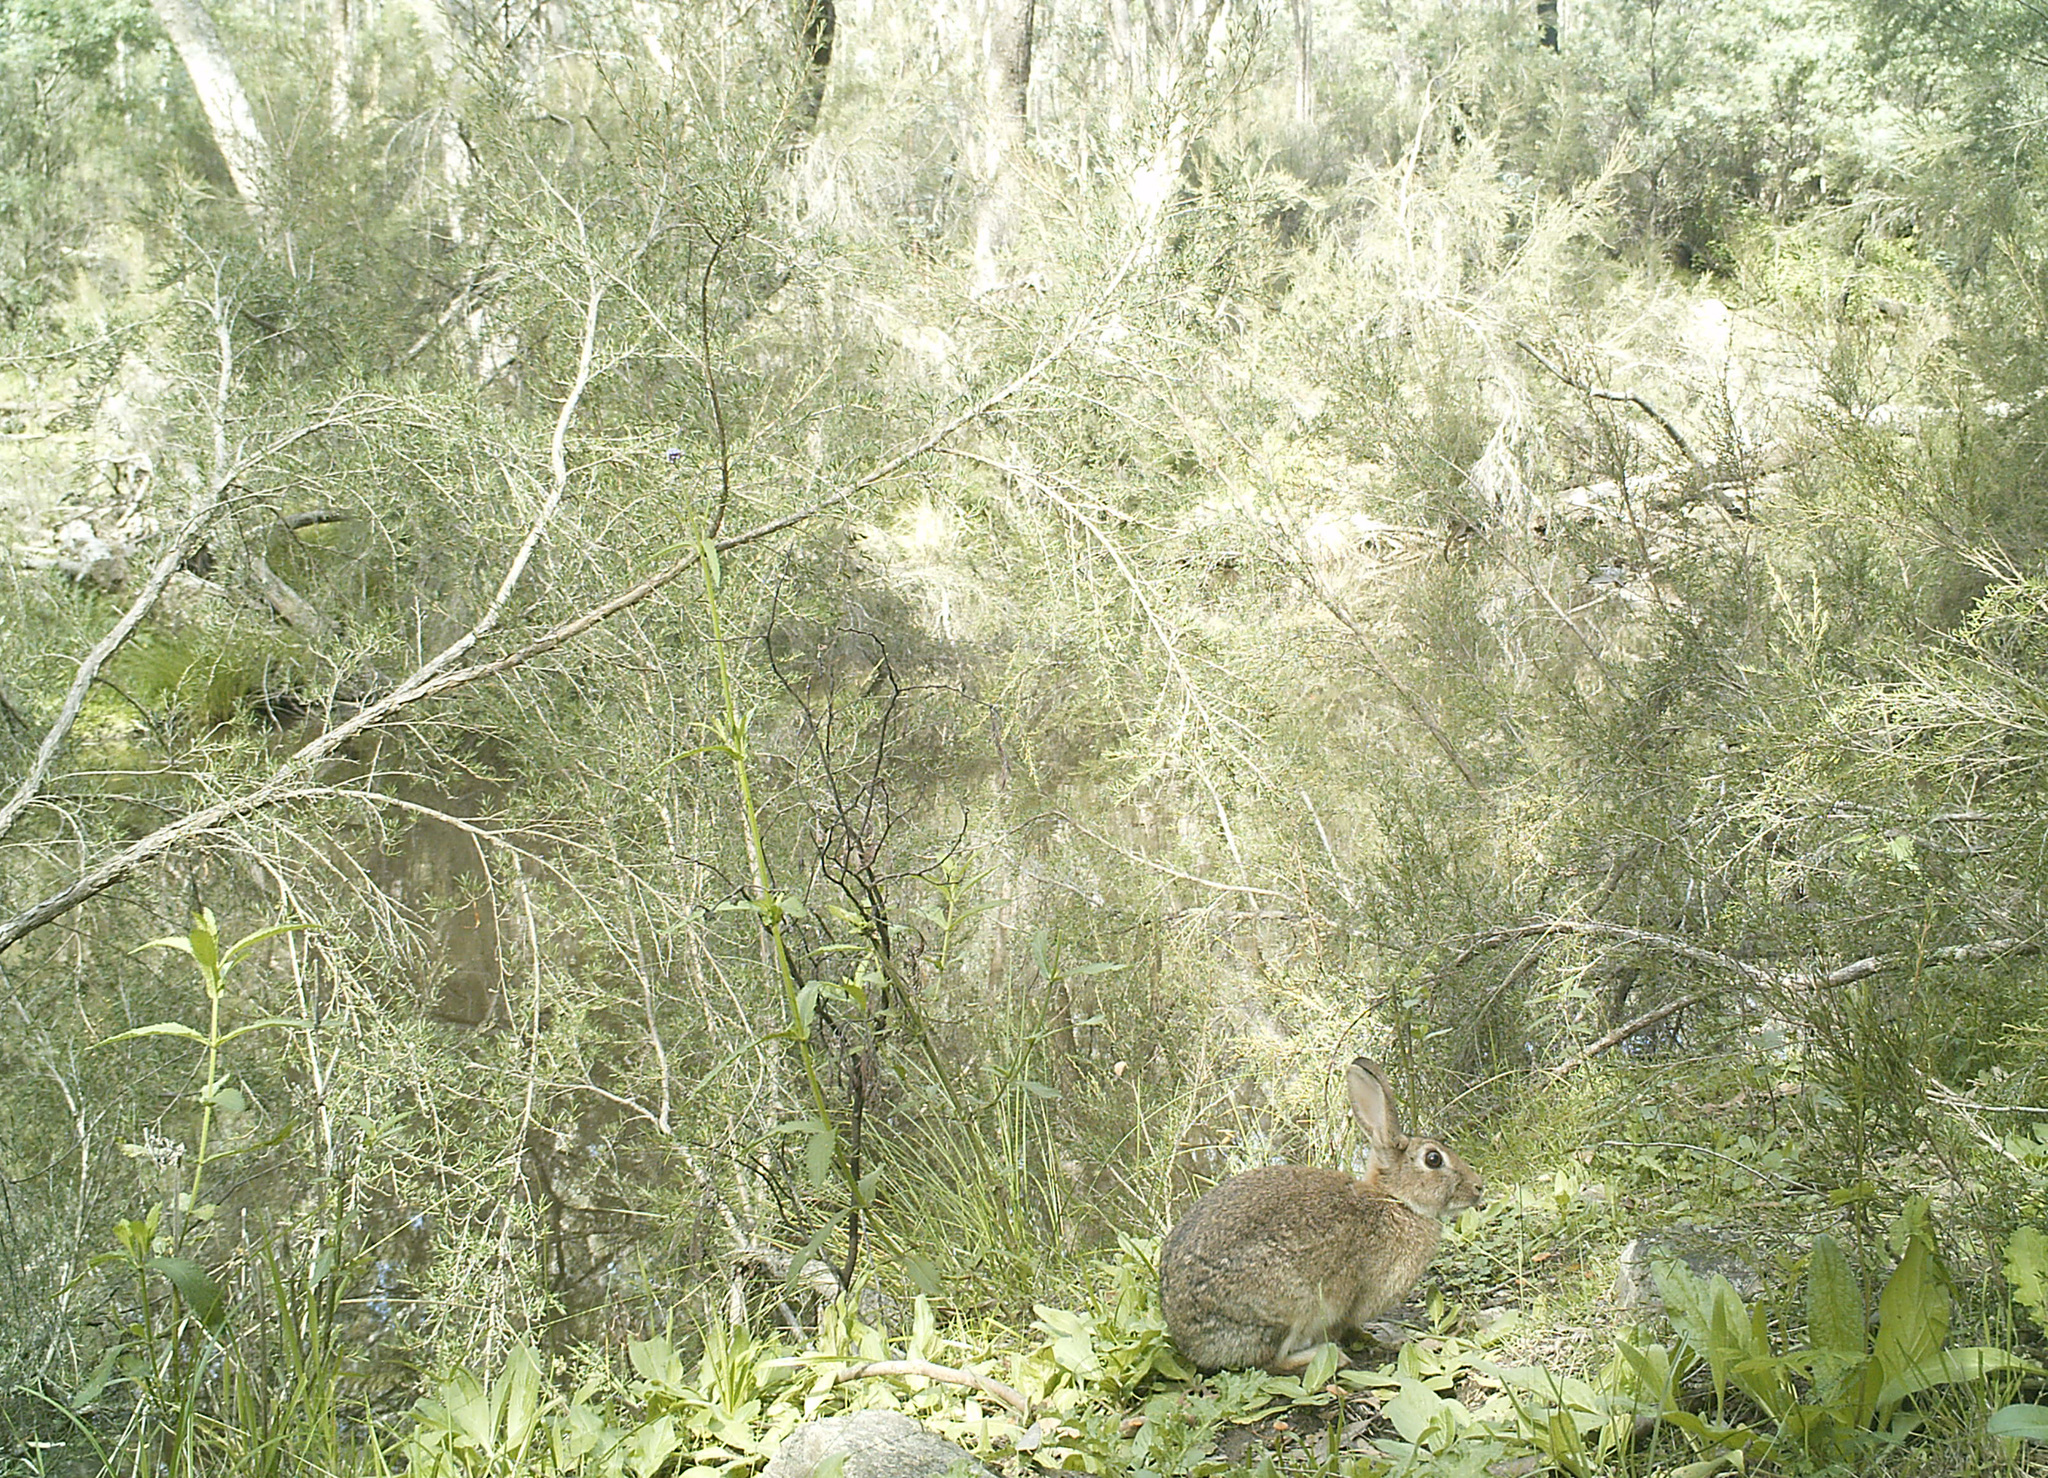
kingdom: Animalia
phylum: Chordata
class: Mammalia
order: Lagomorpha
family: Leporidae
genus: Oryctolagus
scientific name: Oryctolagus cuniculus
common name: European rabbit
